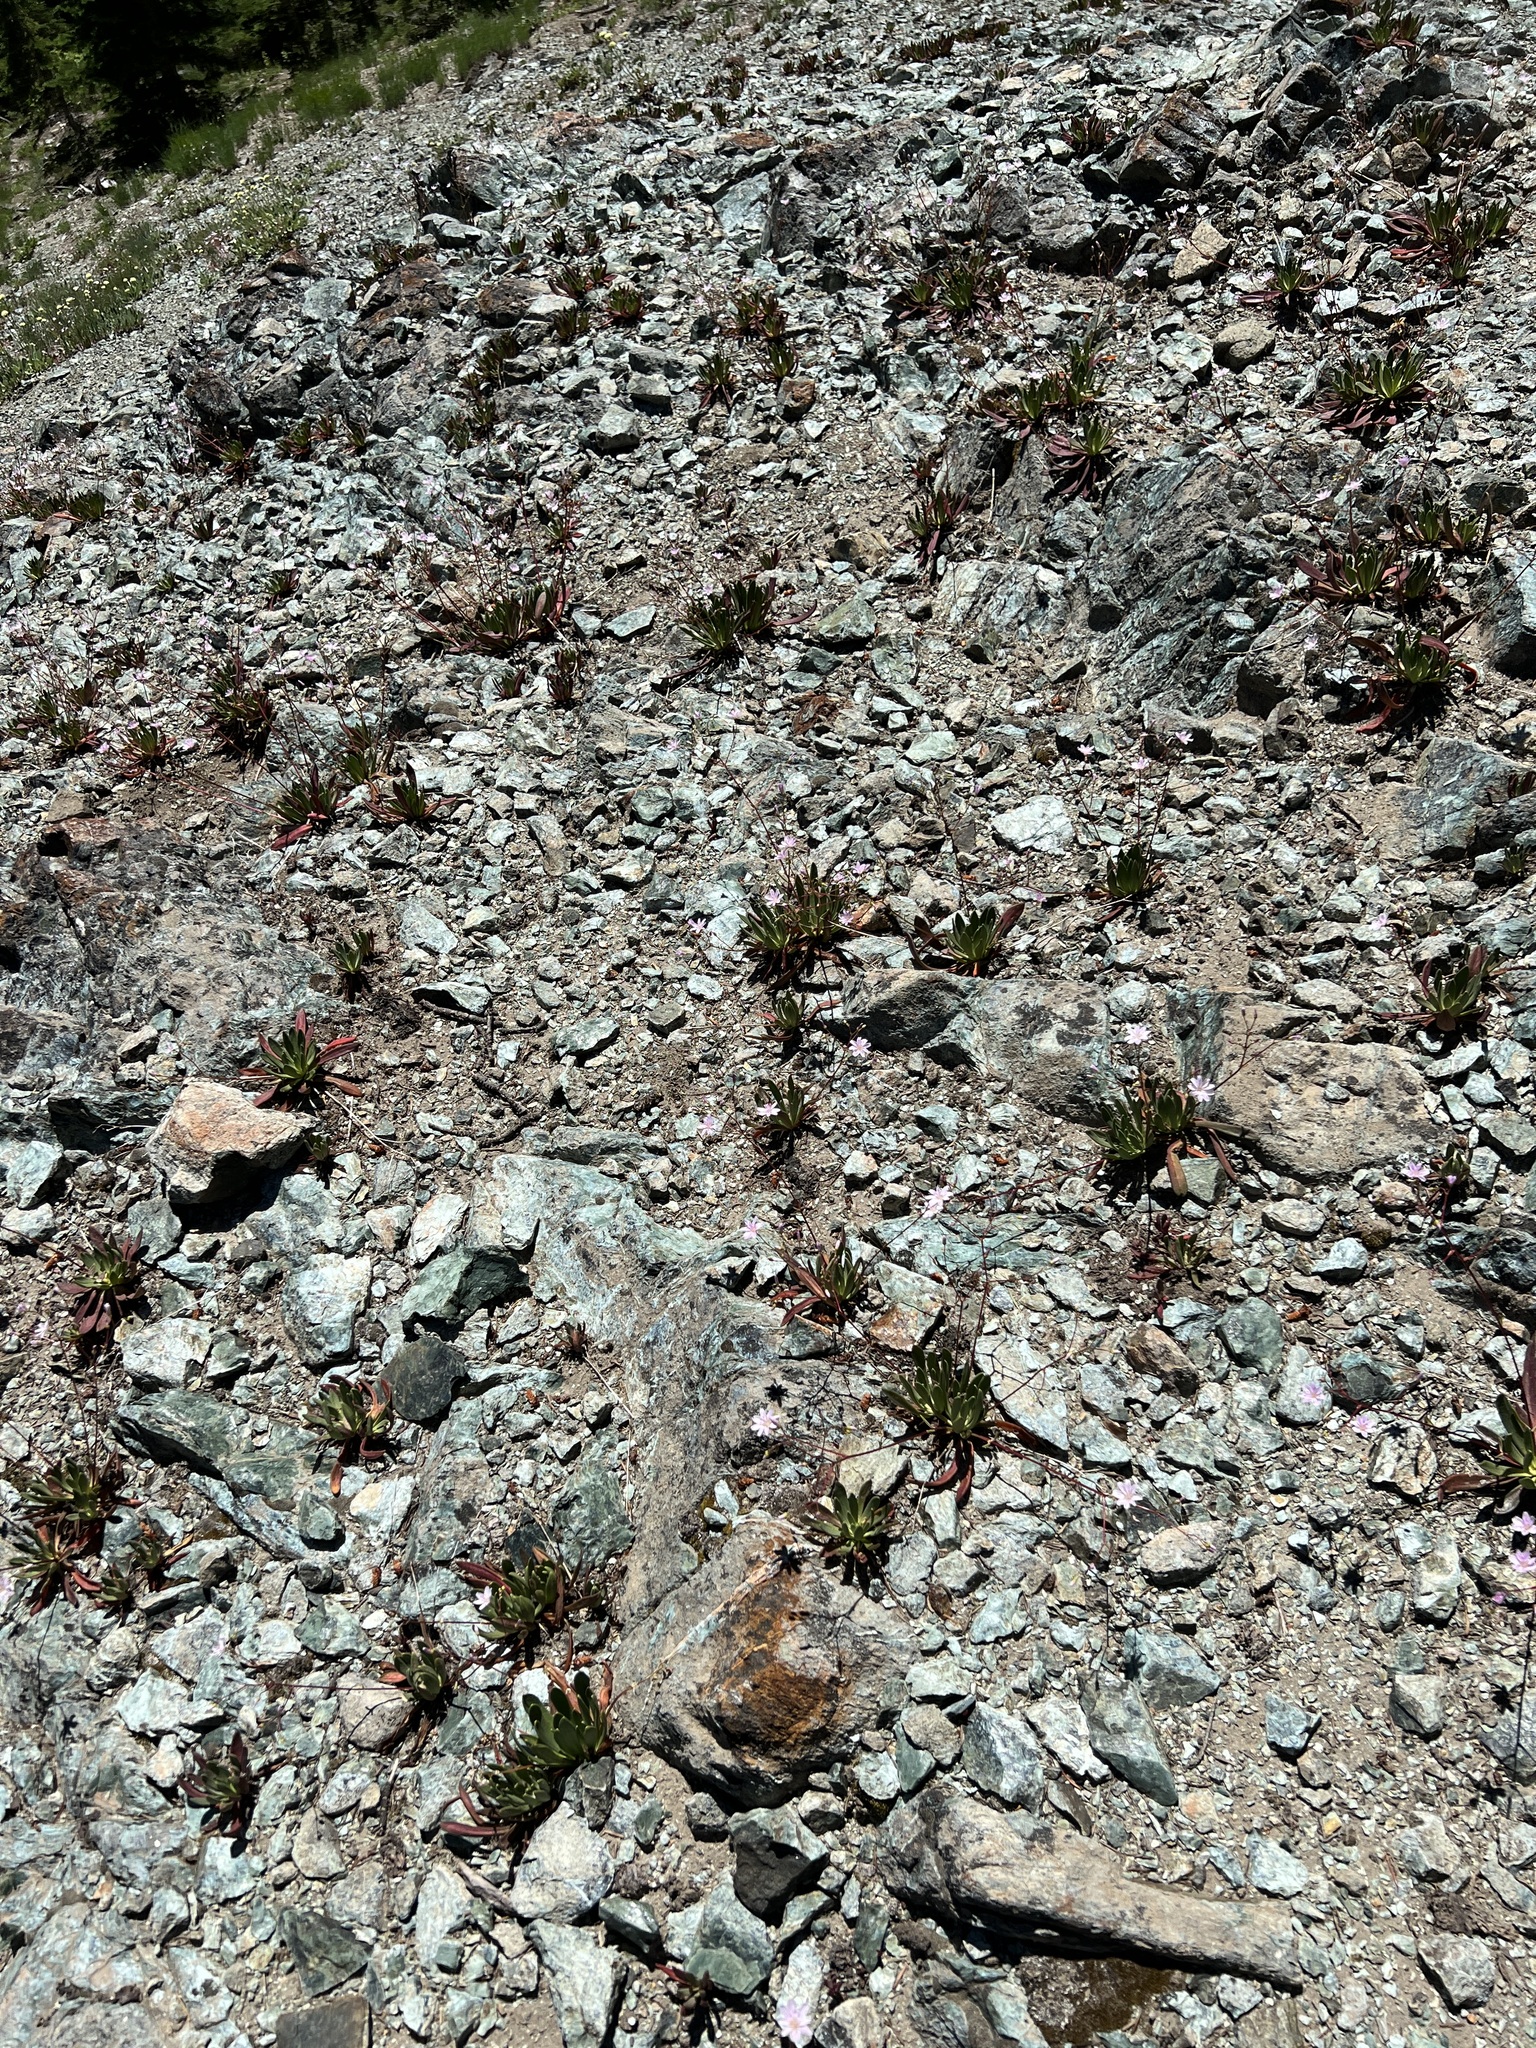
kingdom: Plantae
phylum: Tracheophyta
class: Magnoliopsida
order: Caryophyllales
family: Montiaceae
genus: Lewisia
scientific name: Lewisia columbiana
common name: Columbia lewisia
